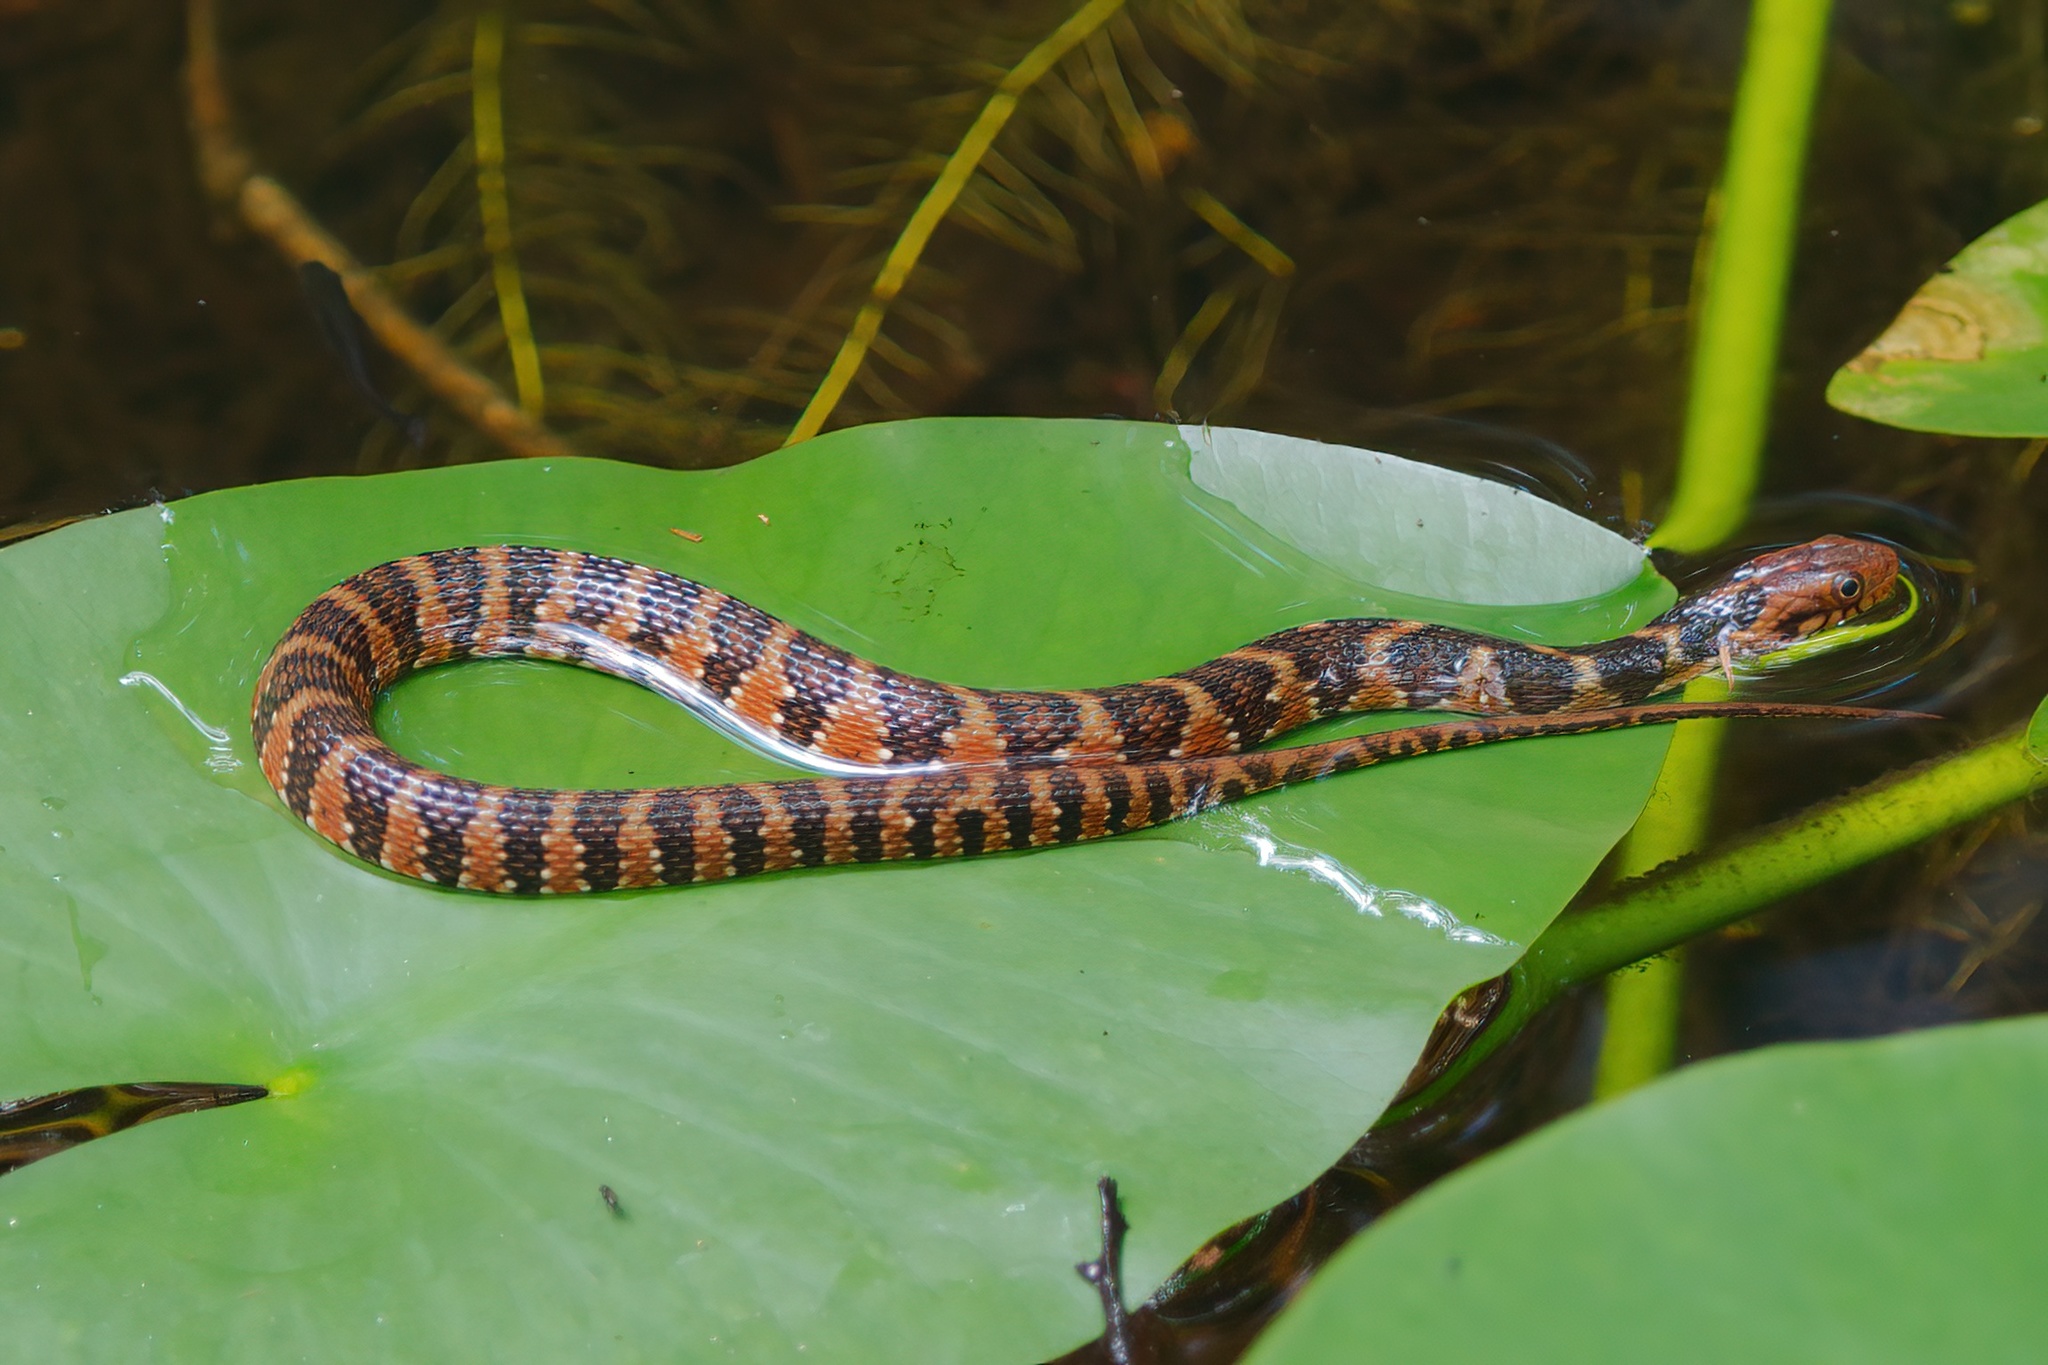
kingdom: Animalia
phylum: Chordata
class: Squamata
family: Colubridae
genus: Nerodia
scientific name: Nerodia fasciata
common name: Southern water snake
